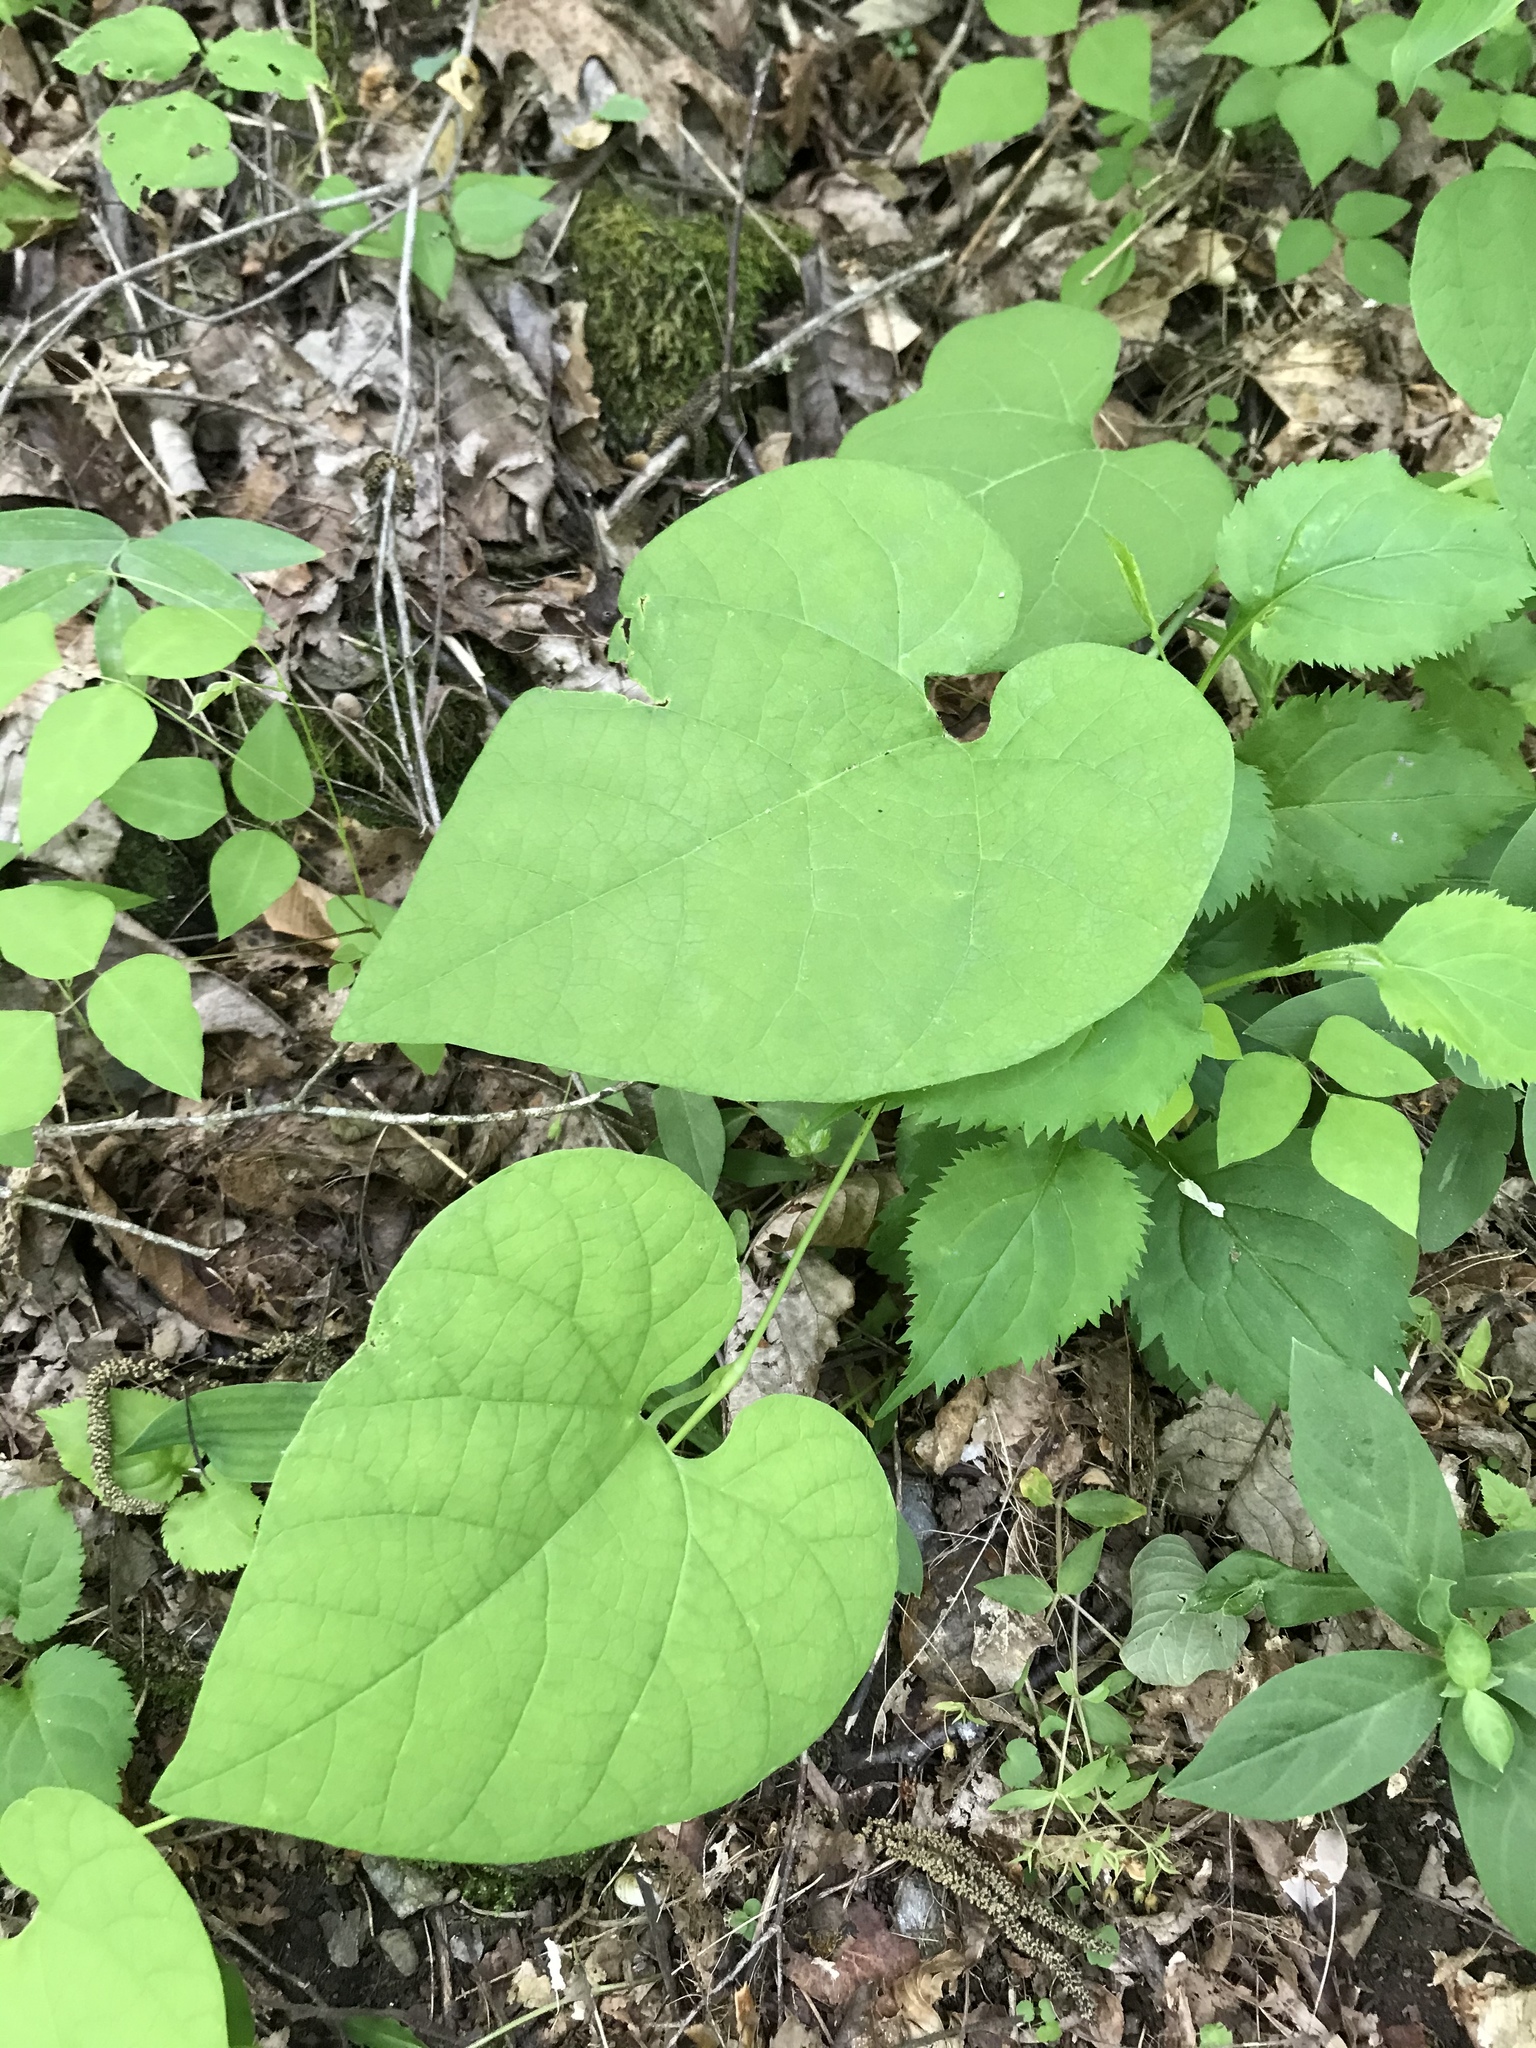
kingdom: Plantae
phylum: Tracheophyta
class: Magnoliopsida
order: Piperales
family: Aristolochiaceae
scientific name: Aristolochiaceae
